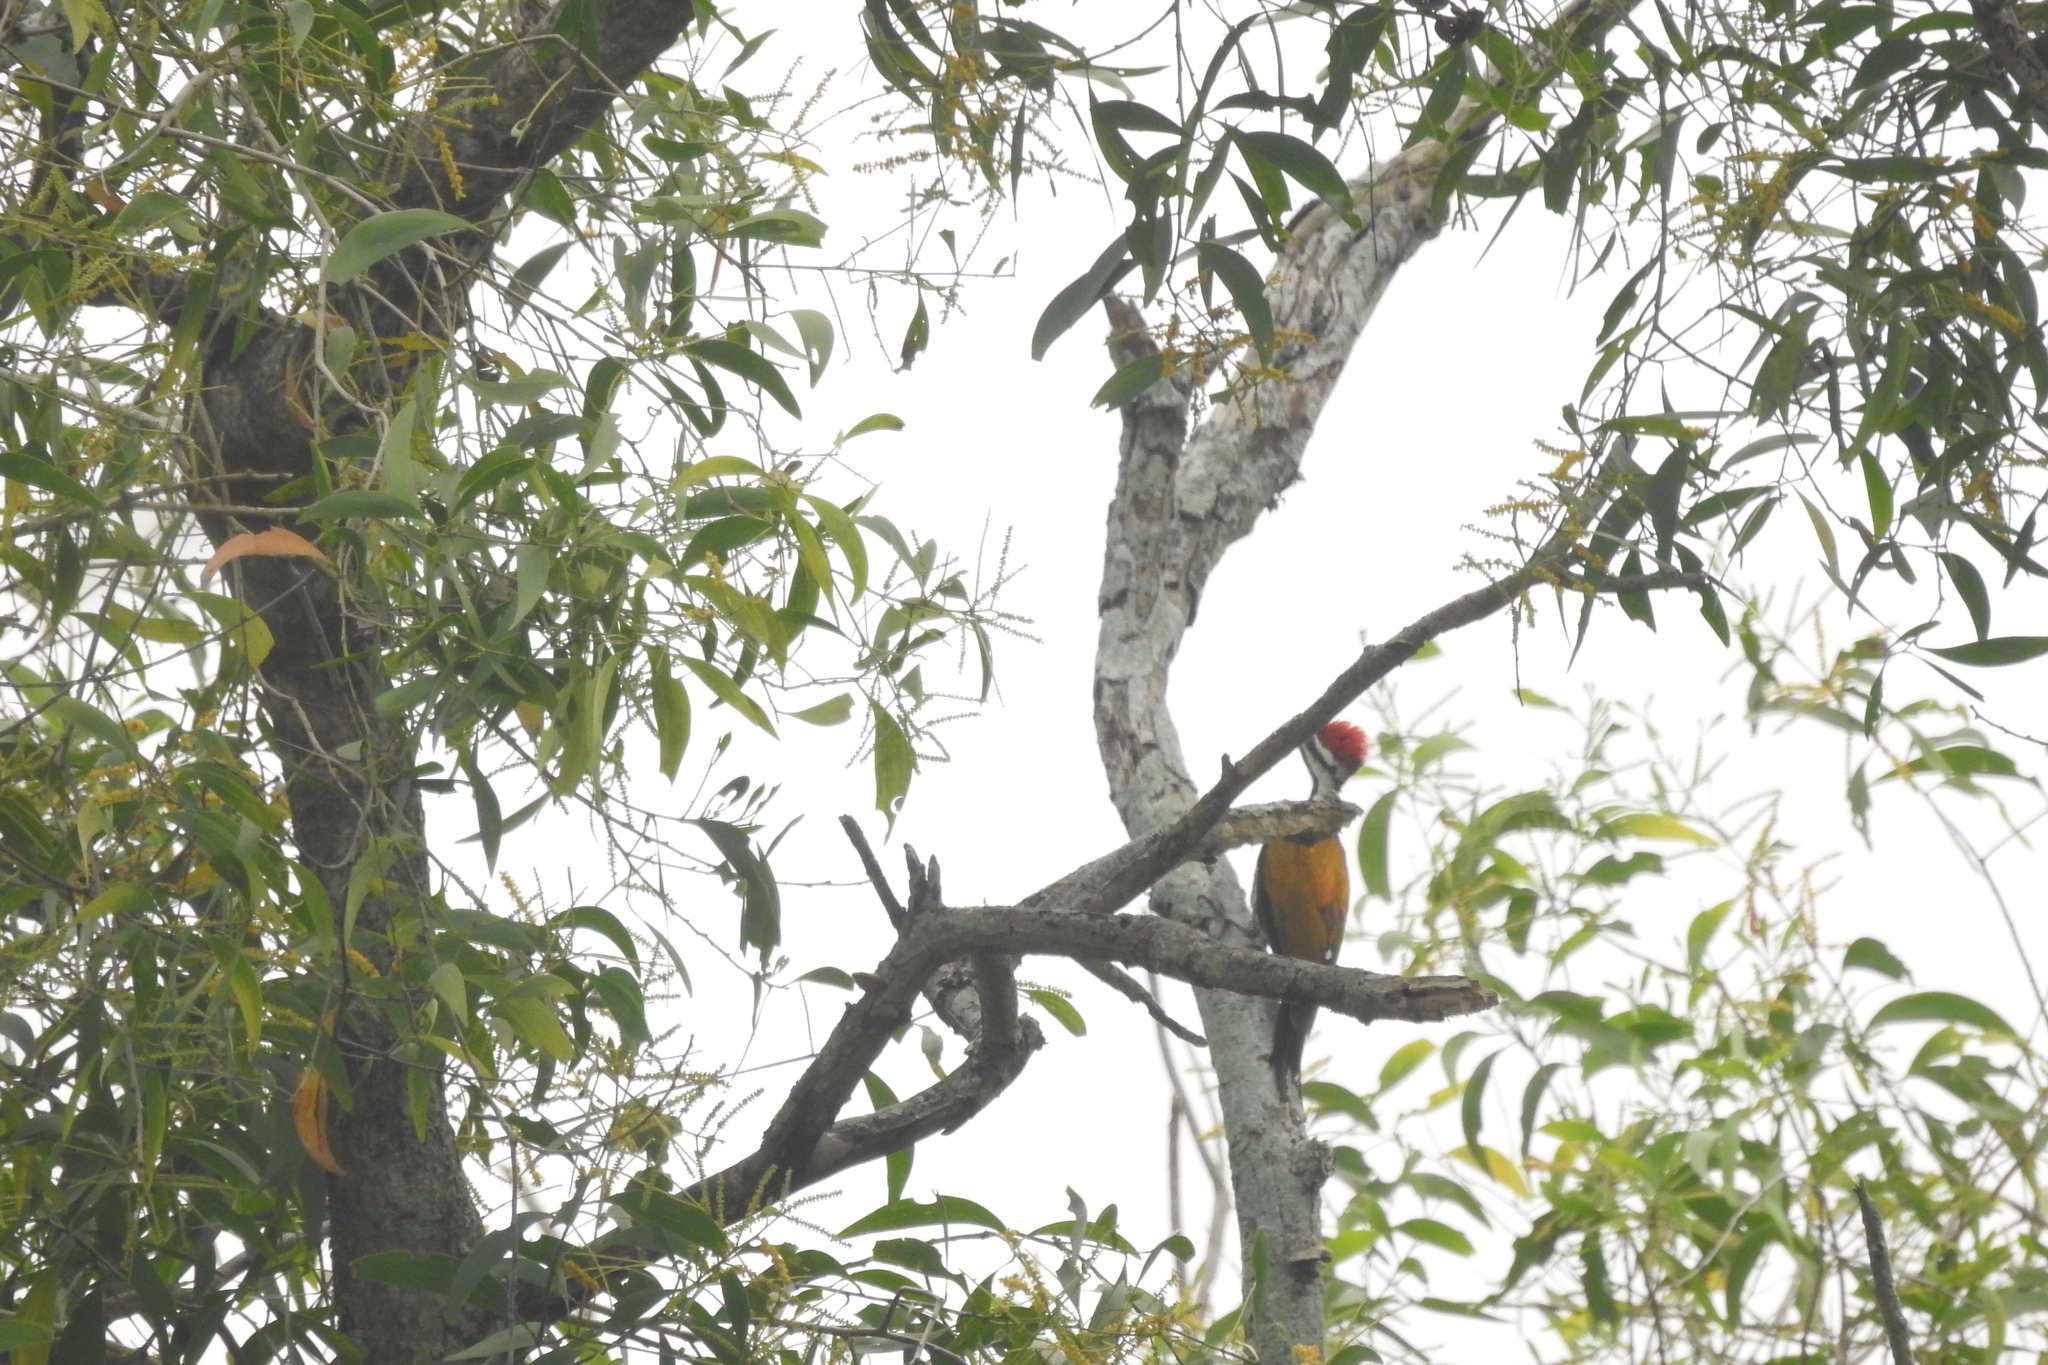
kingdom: Animalia
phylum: Chordata
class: Aves
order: Piciformes
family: Picidae
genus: Dinopium
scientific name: Dinopium javanense
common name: Common flameback
